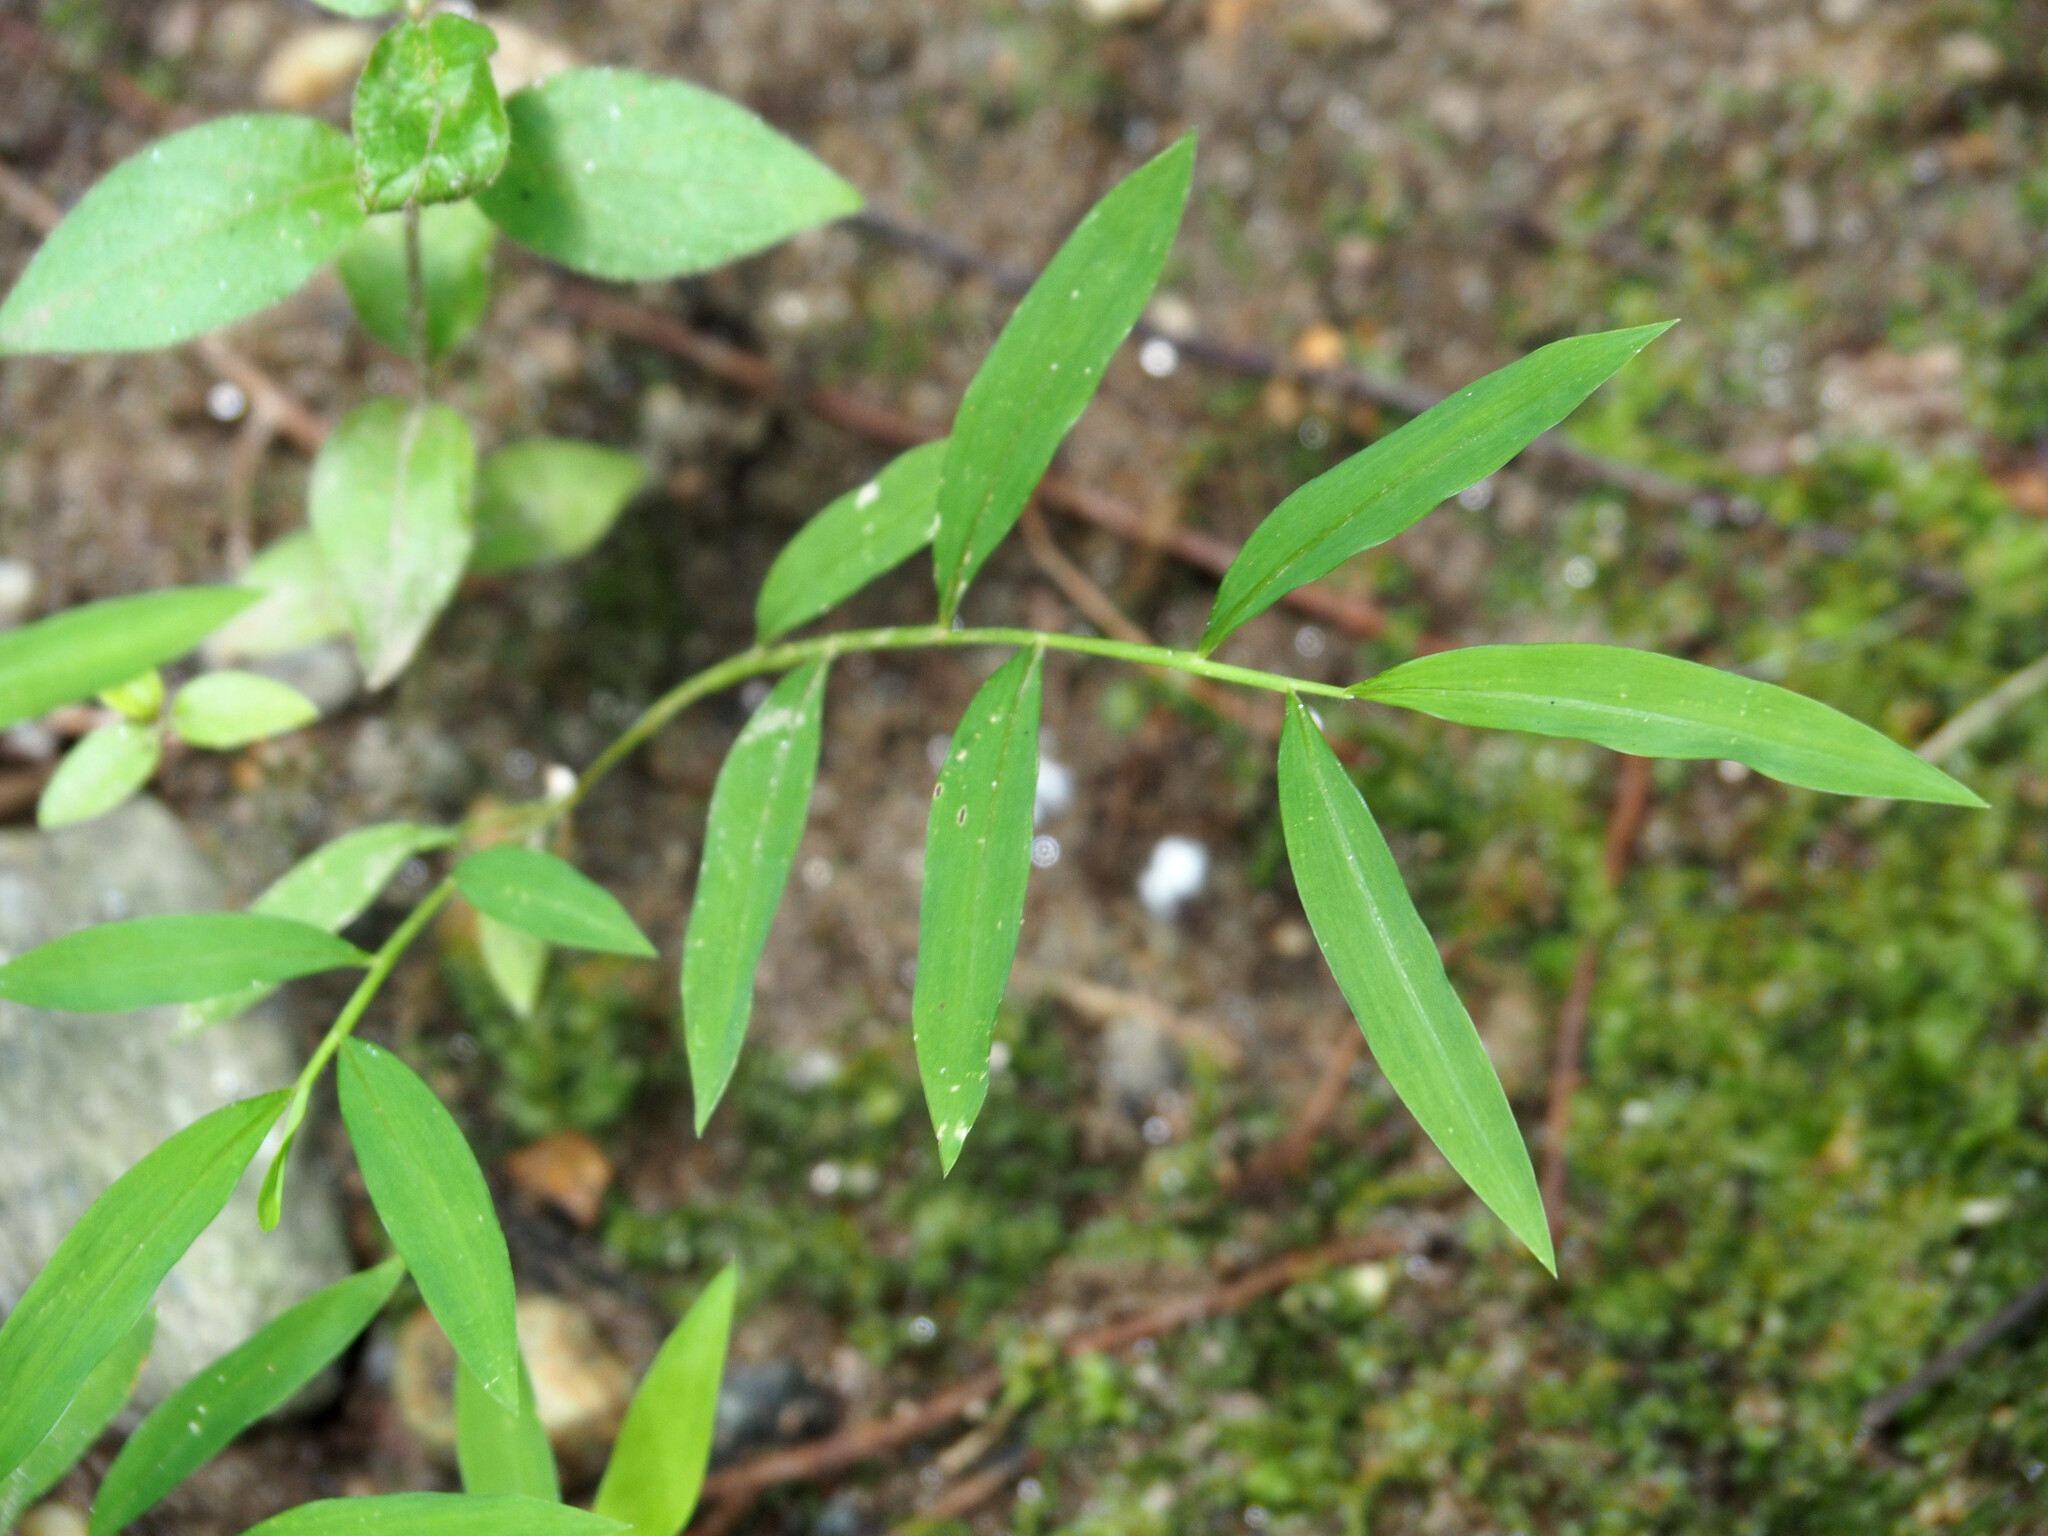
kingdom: Plantae
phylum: Tracheophyta
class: Liliopsida
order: Poales
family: Poaceae
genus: Microstegium
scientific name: Microstegium vimineum
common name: Japanese stiltgrass
